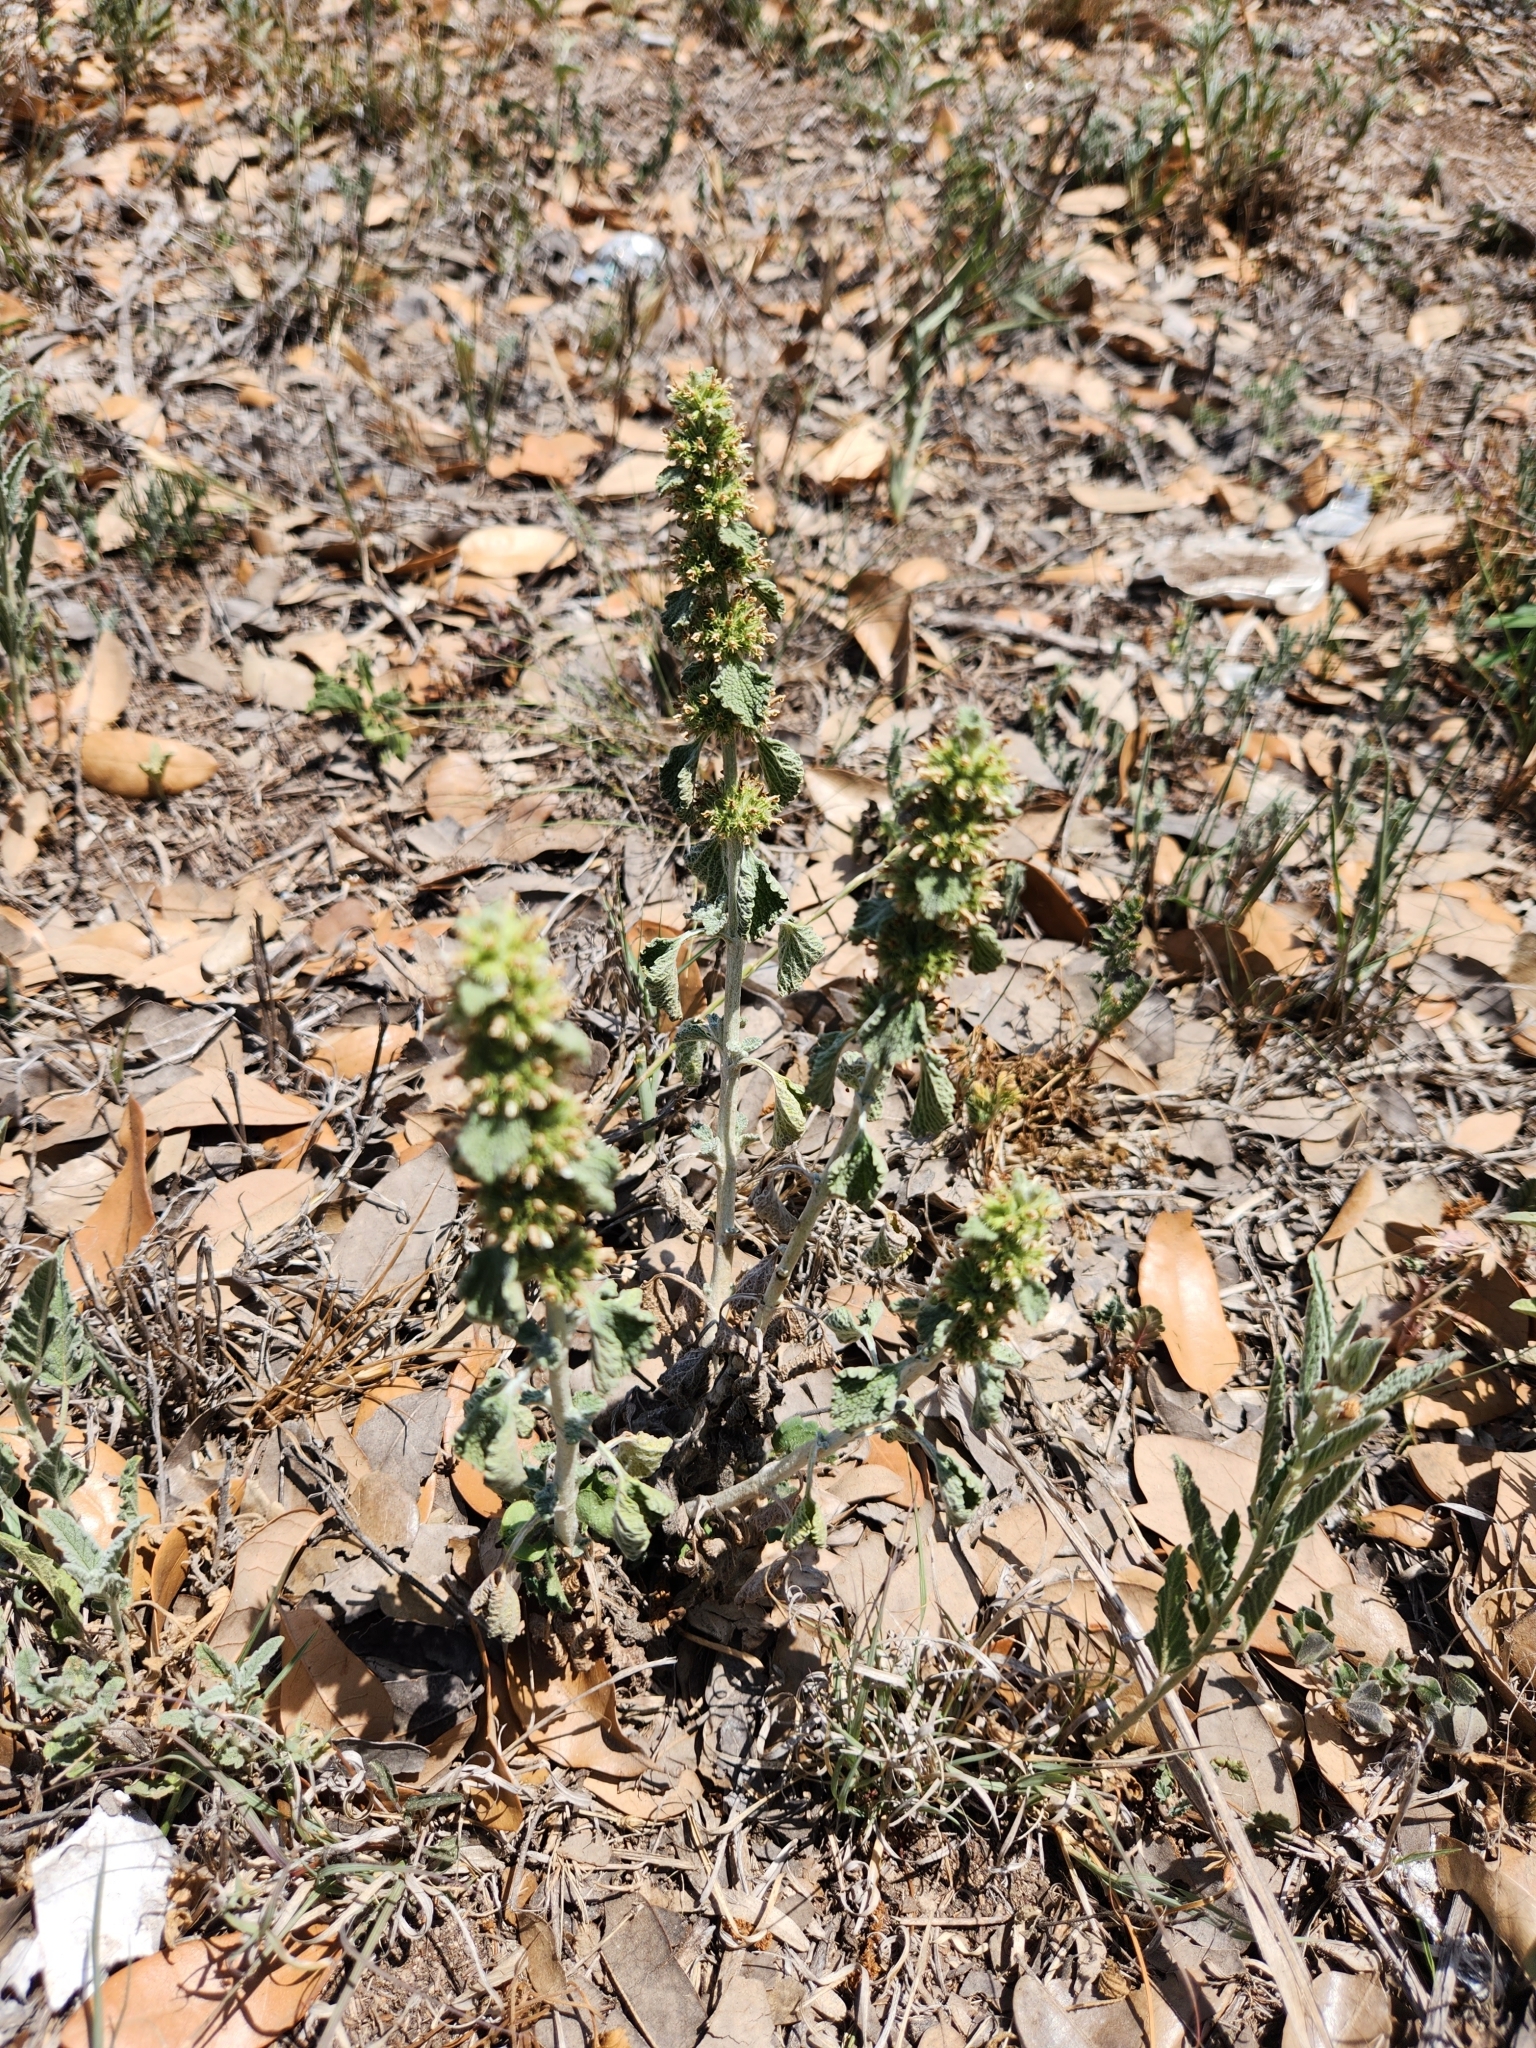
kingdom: Plantae
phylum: Tracheophyta
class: Magnoliopsida
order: Lamiales
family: Lamiaceae
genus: Marrubium
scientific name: Marrubium vulgare
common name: Horehound
